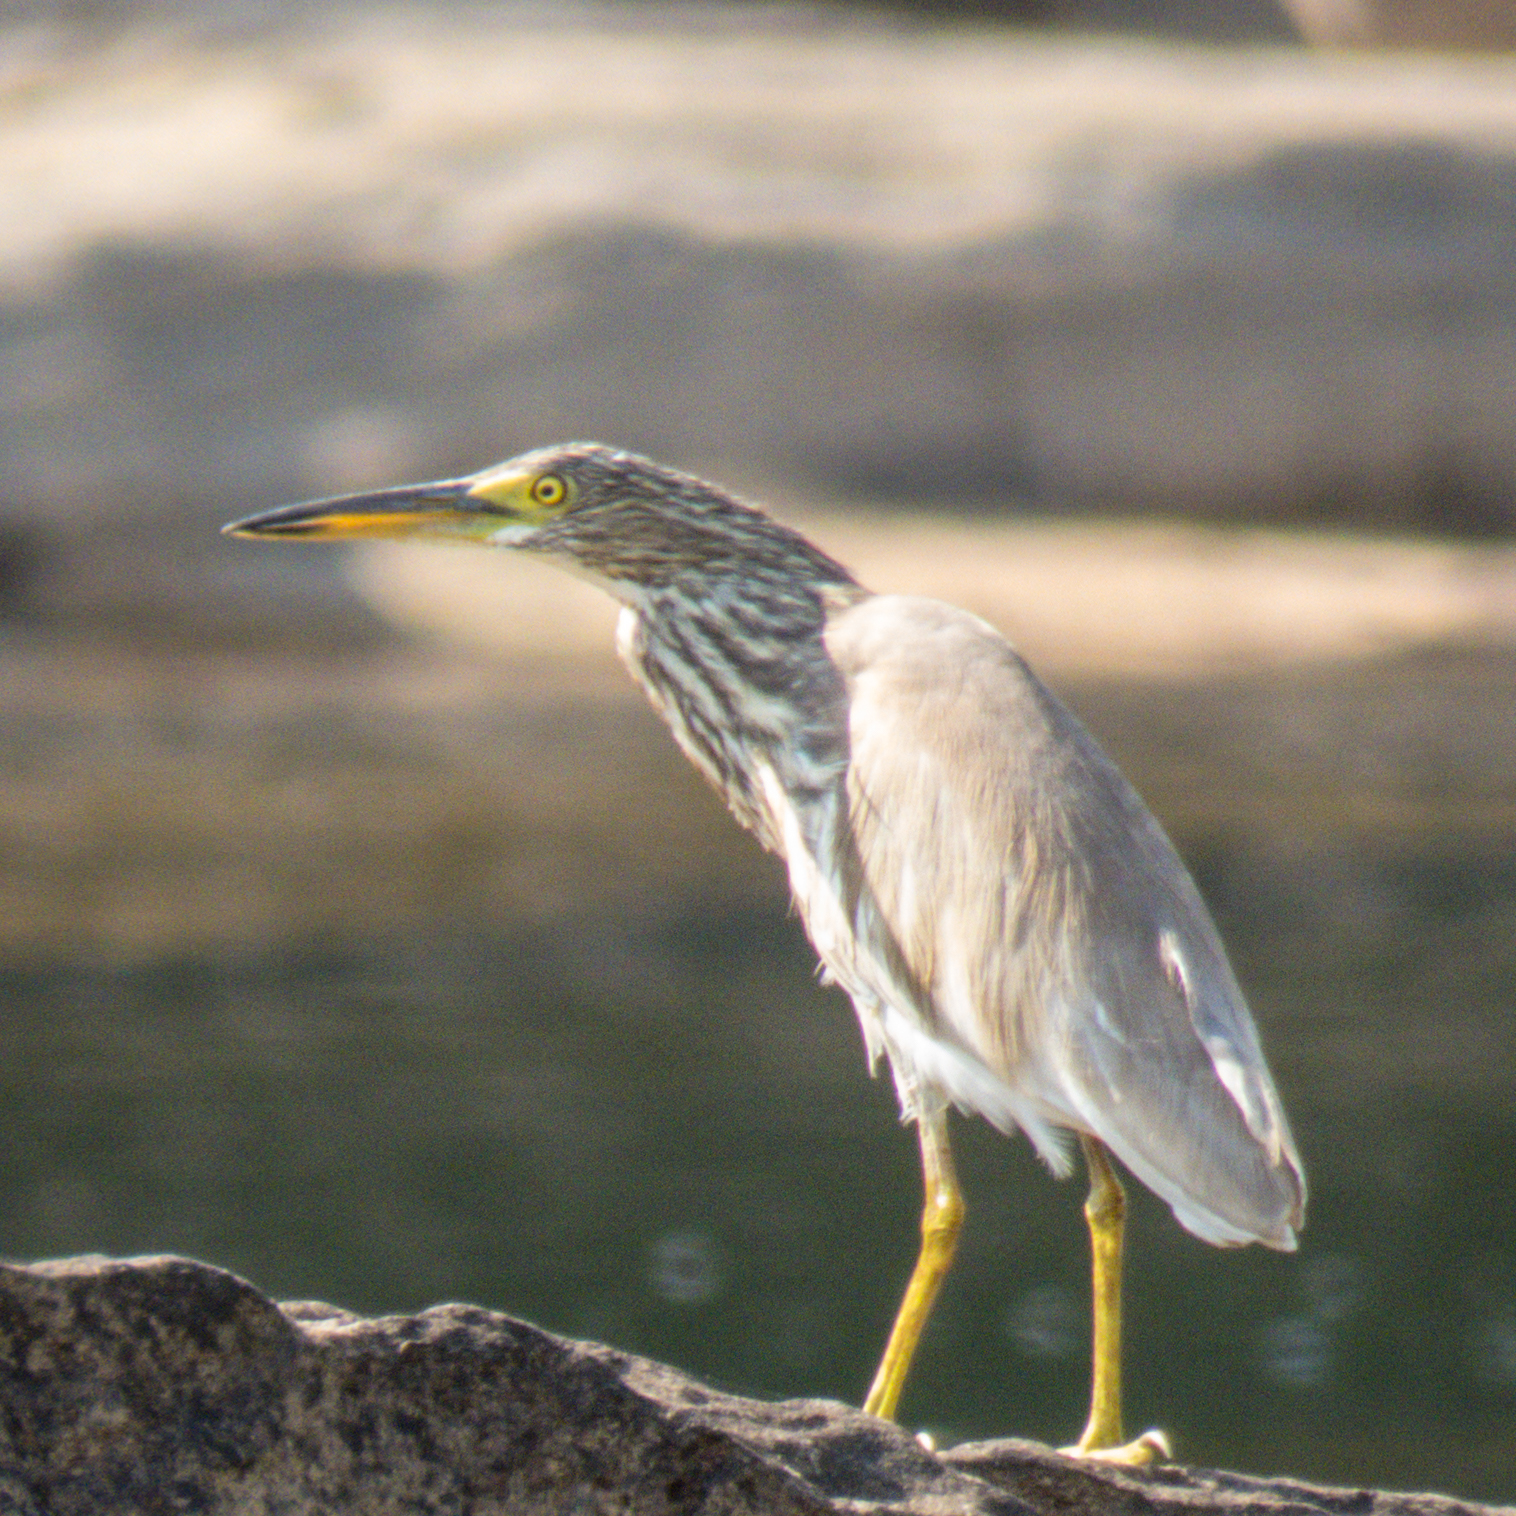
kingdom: Animalia
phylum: Chordata
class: Aves
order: Pelecaniformes
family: Ardeidae
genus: Ardeola
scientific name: Ardeola
